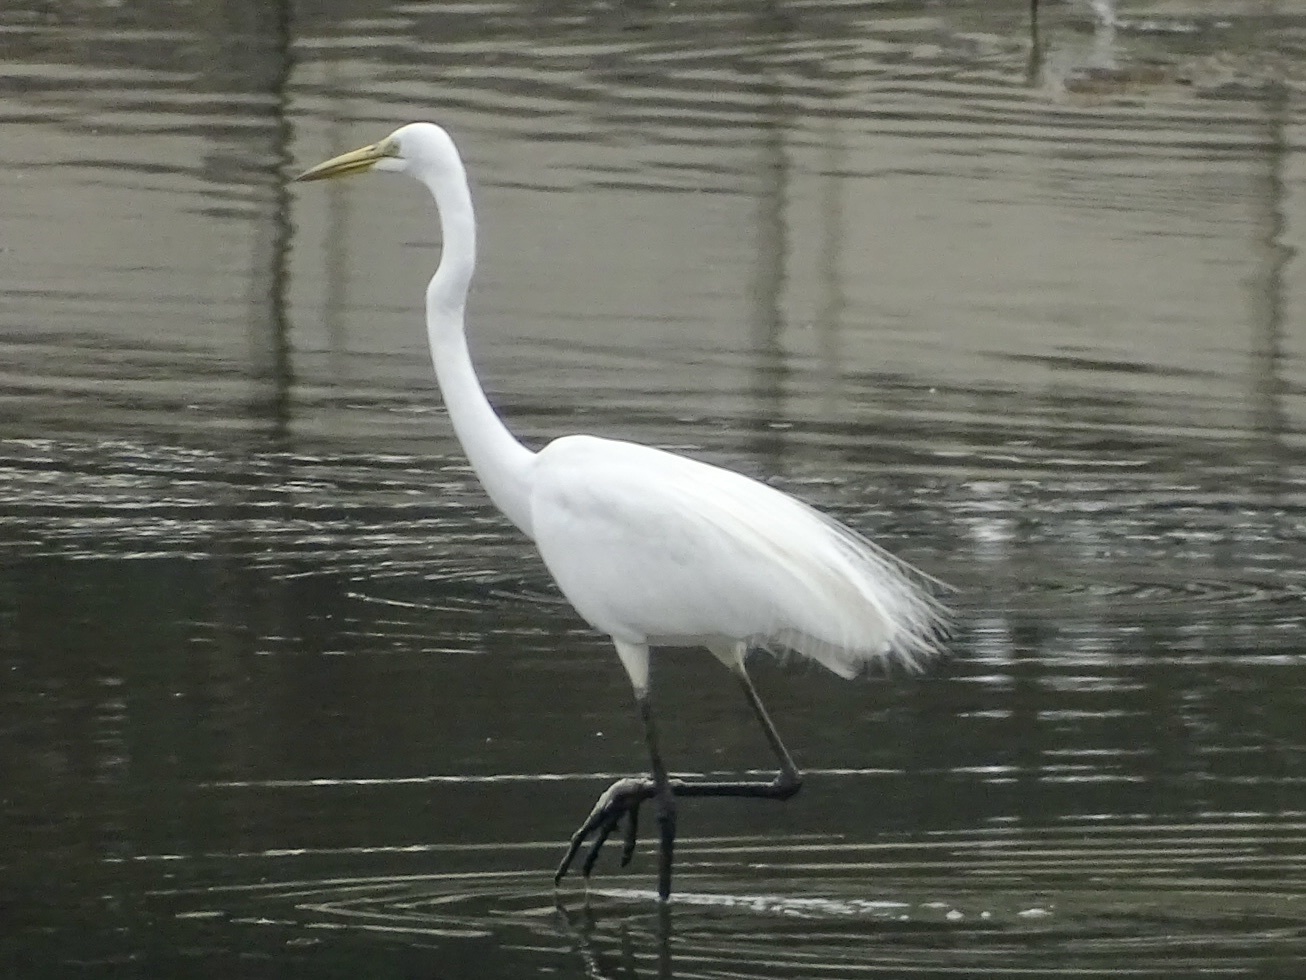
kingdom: Animalia
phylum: Chordata
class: Aves
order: Pelecaniformes
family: Ardeidae
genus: Ardea
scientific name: Ardea alba
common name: Great egret
